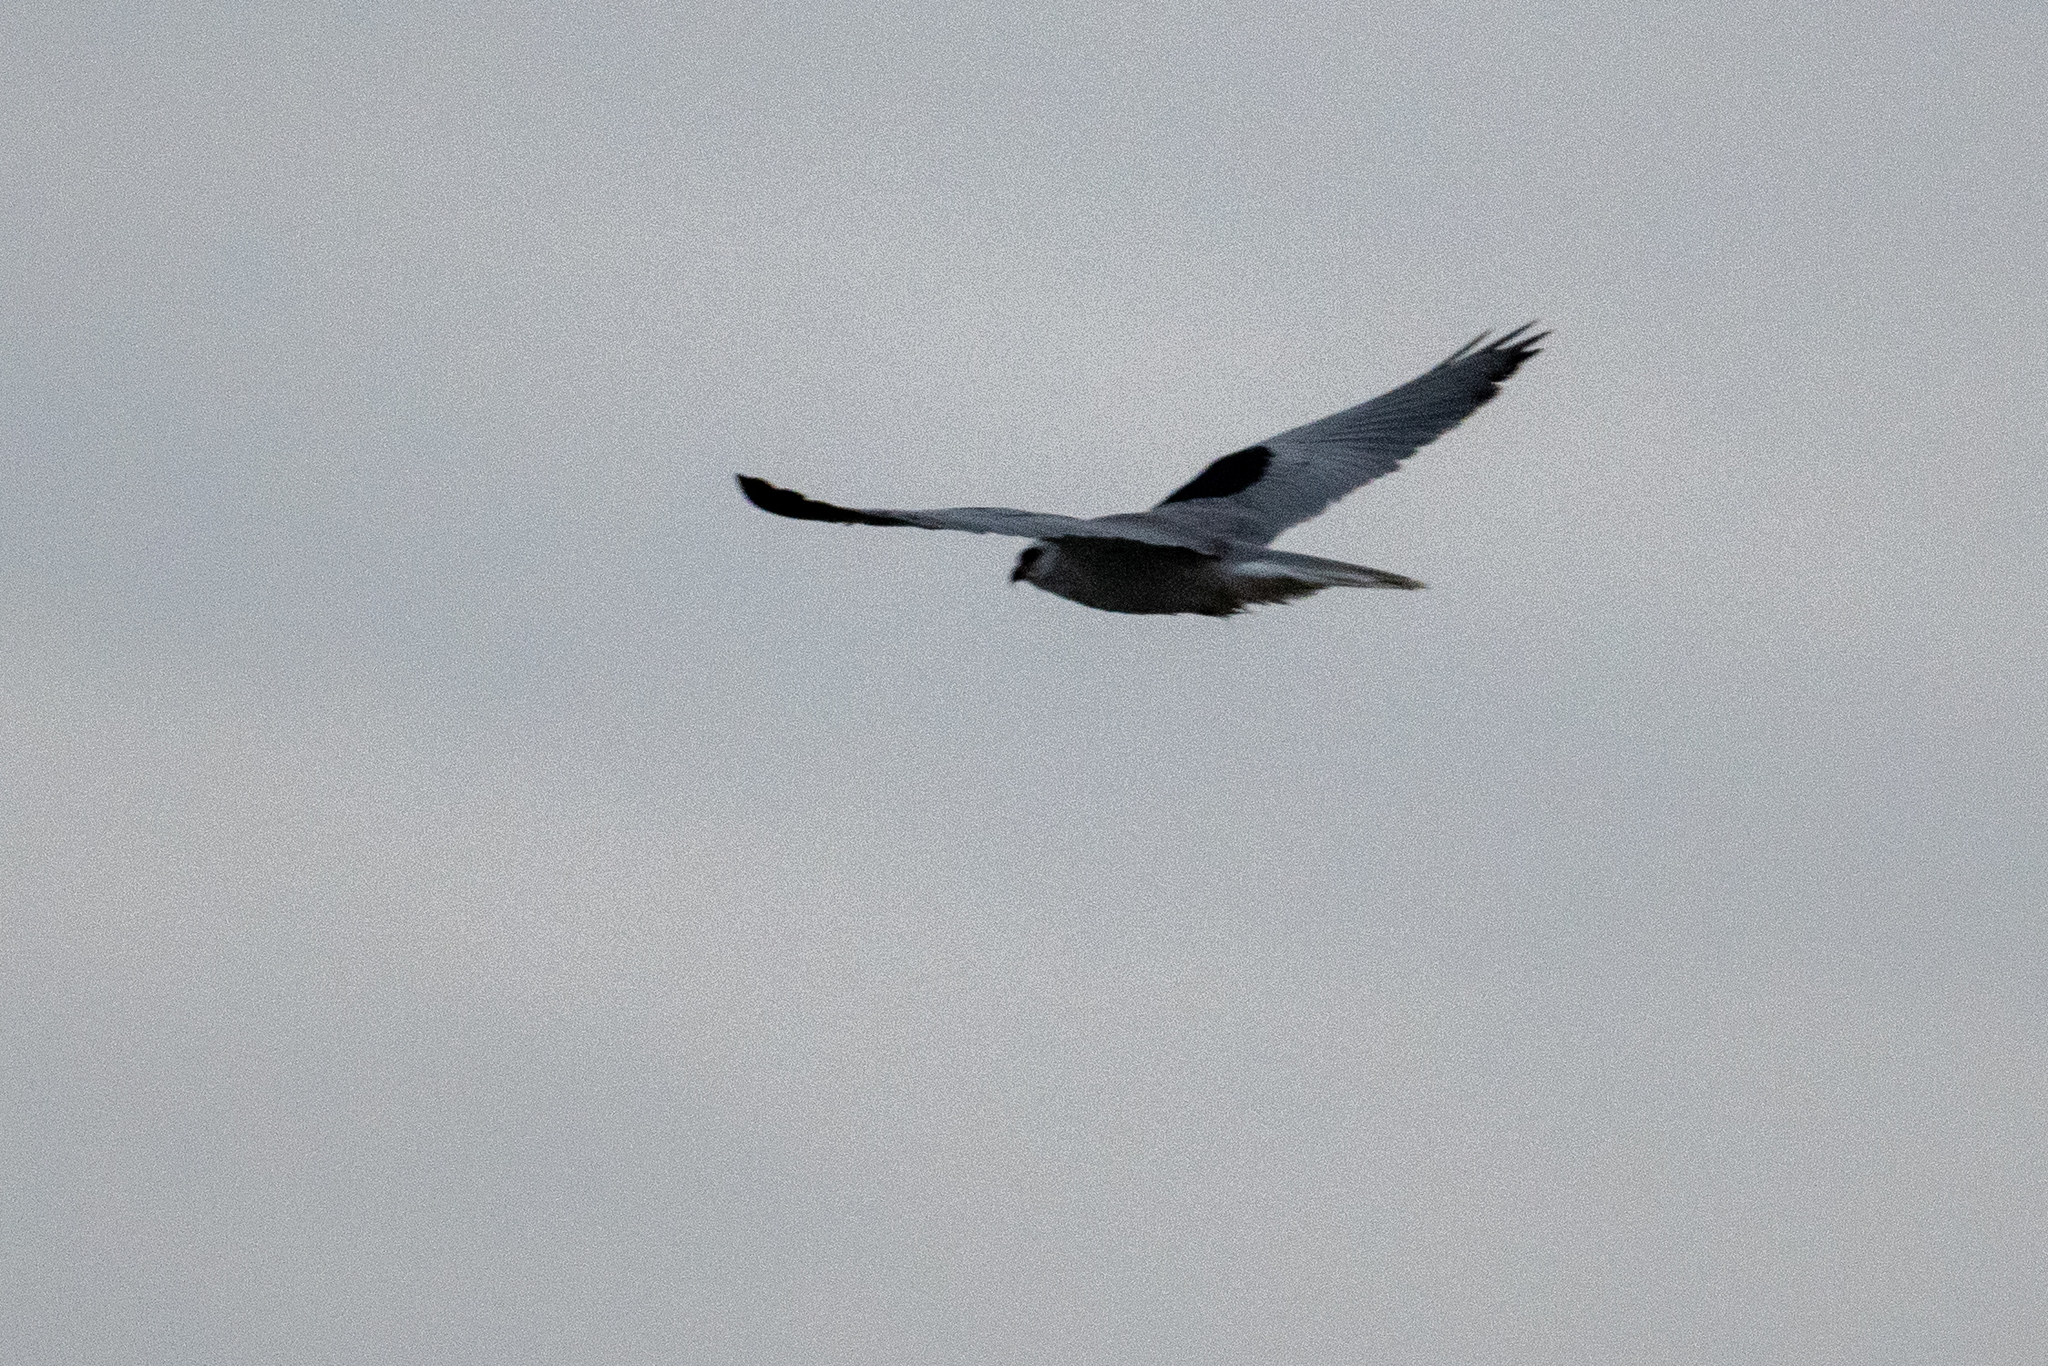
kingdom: Animalia
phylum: Chordata
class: Aves
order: Accipitriformes
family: Accipitridae
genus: Elanus
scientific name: Elanus leucurus
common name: White-tailed kite
